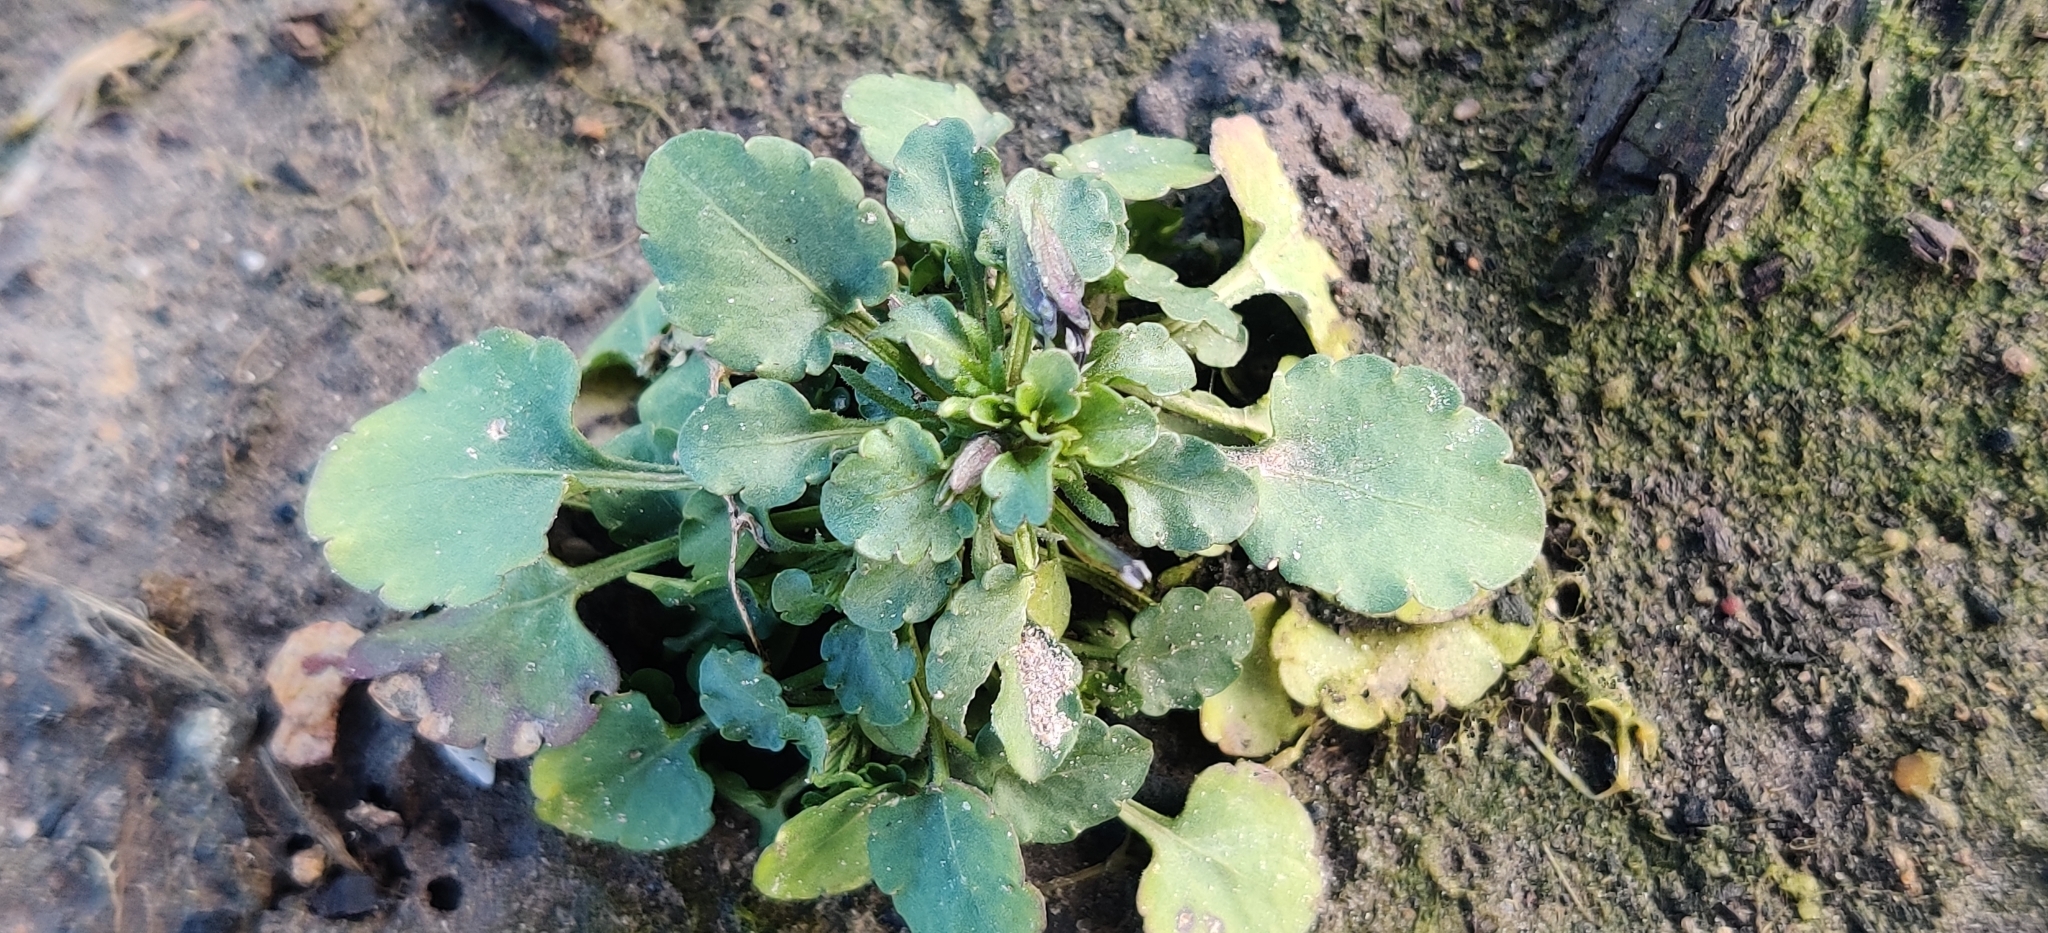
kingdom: Plantae
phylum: Tracheophyta
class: Magnoliopsida
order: Malpighiales
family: Violaceae
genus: Viola
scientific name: Viola arvensis
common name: Field pansy
